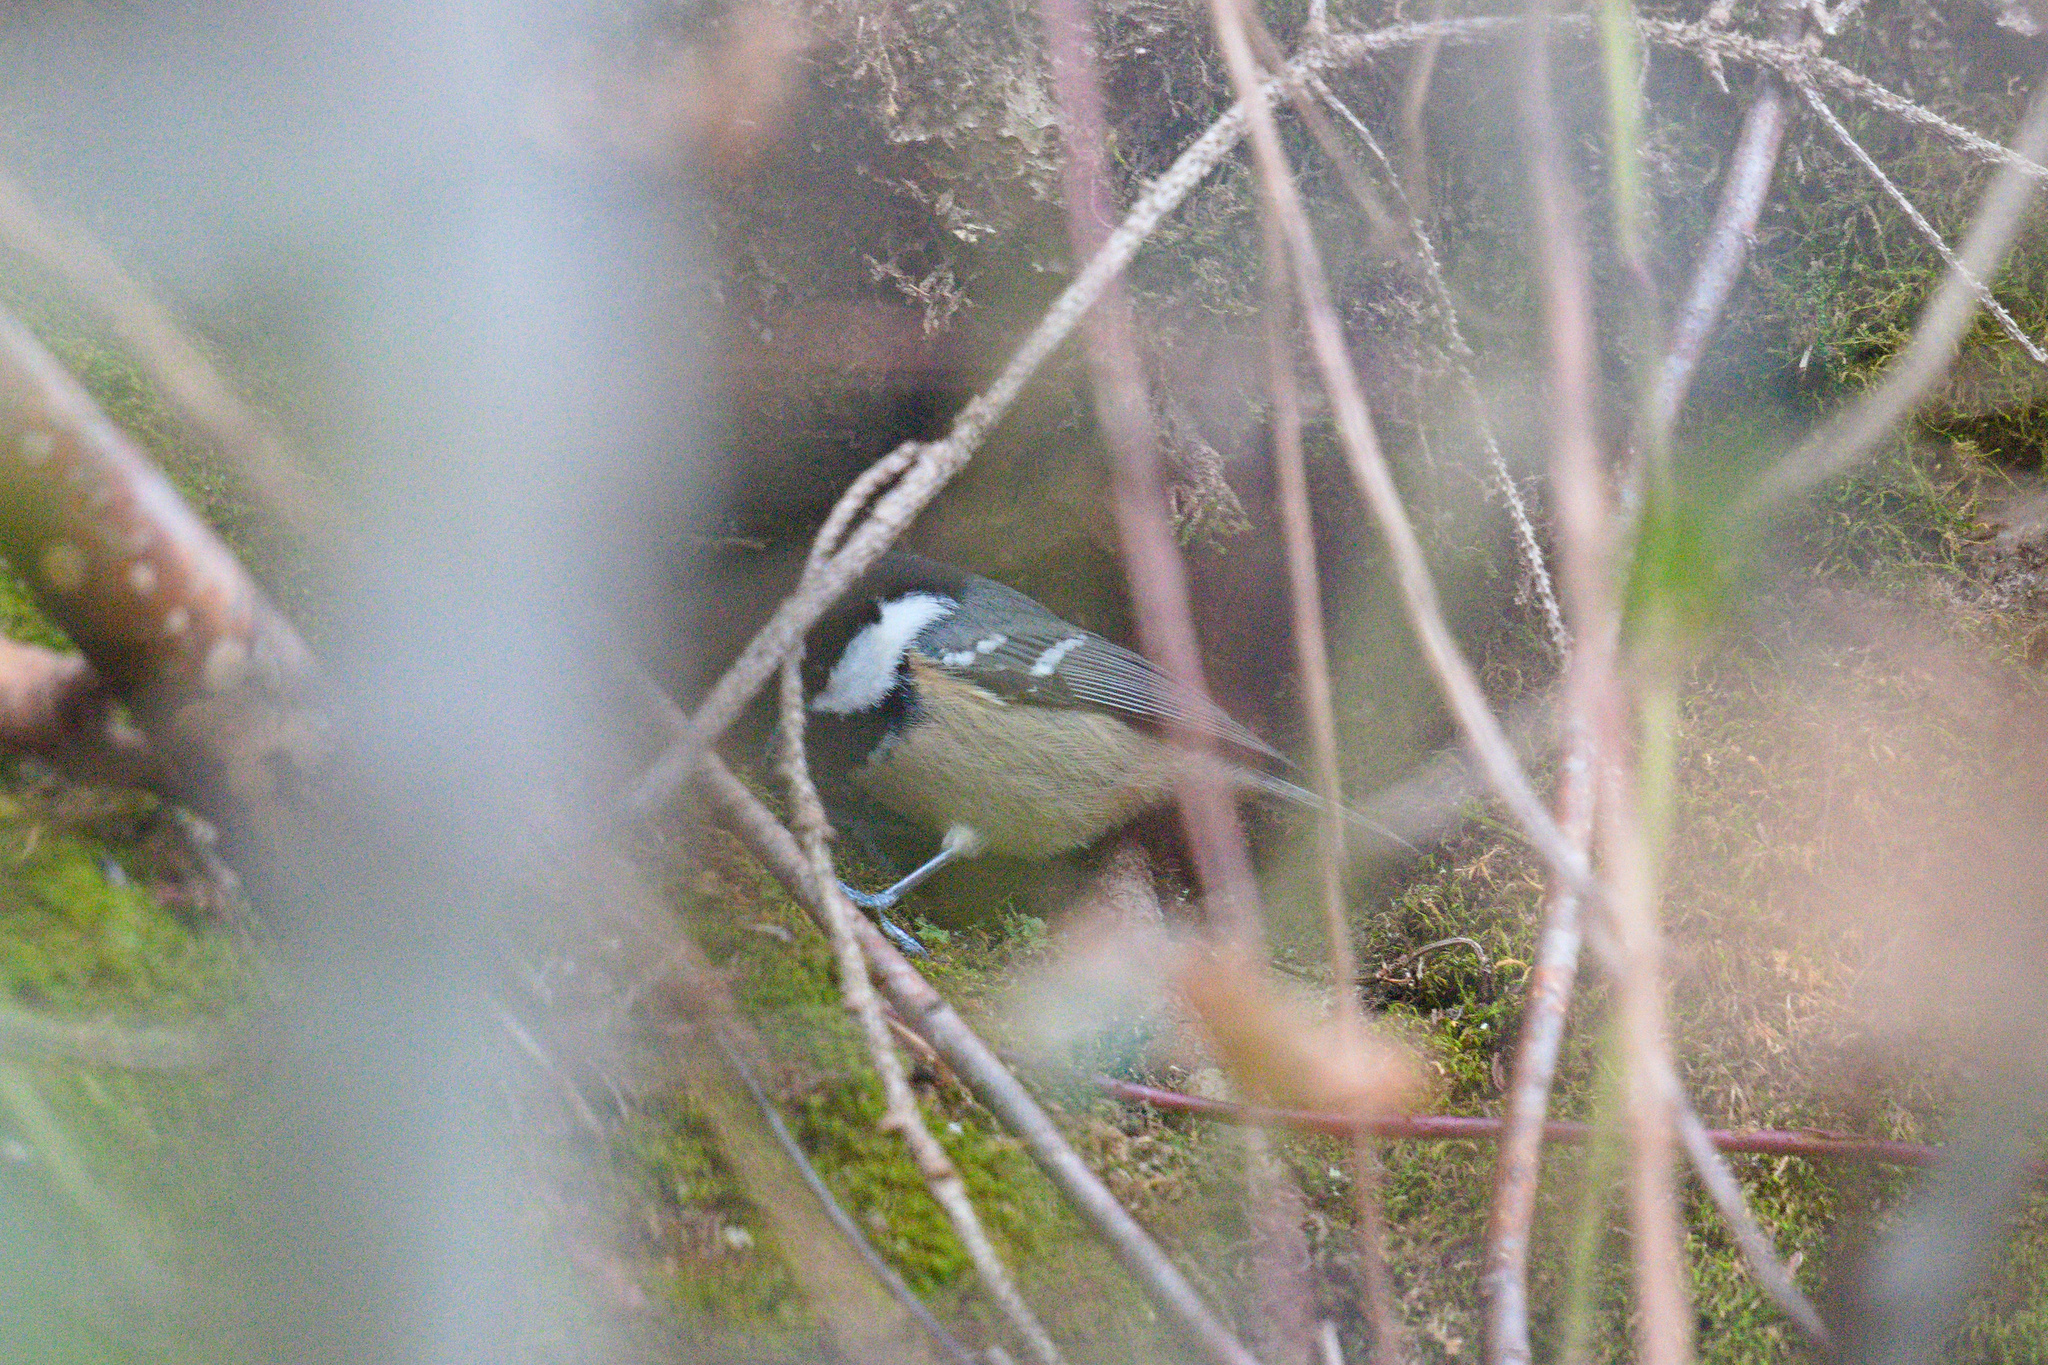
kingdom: Animalia
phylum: Chordata
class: Aves
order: Passeriformes
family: Paridae
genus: Periparus
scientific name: Periparus ater
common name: Coal tit
